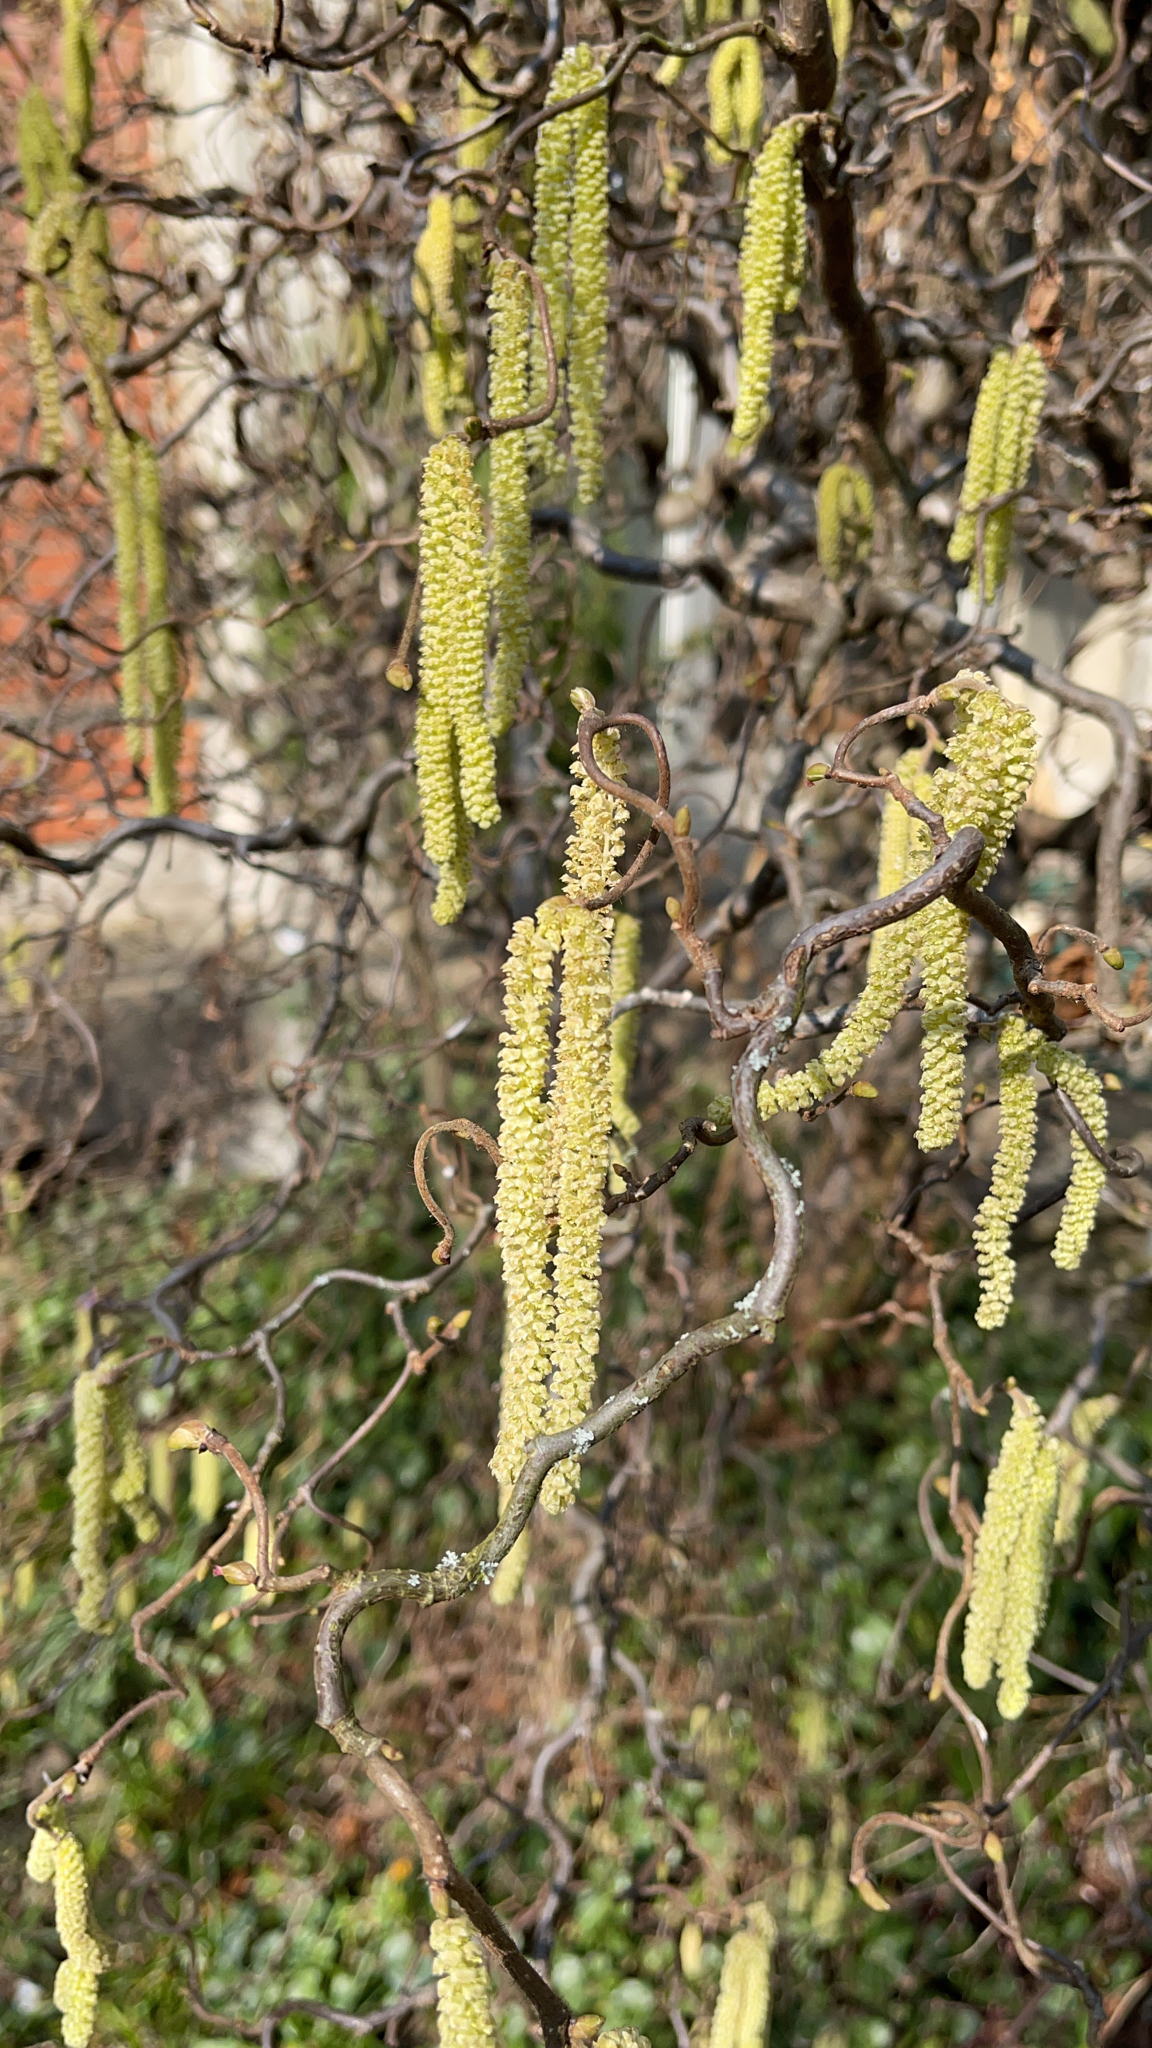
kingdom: Plantae
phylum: Tracheophyta
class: Magnoliopsida
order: Fagales
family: Betulaceae
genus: Corylus
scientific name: Corylus avellana
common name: European hazel
